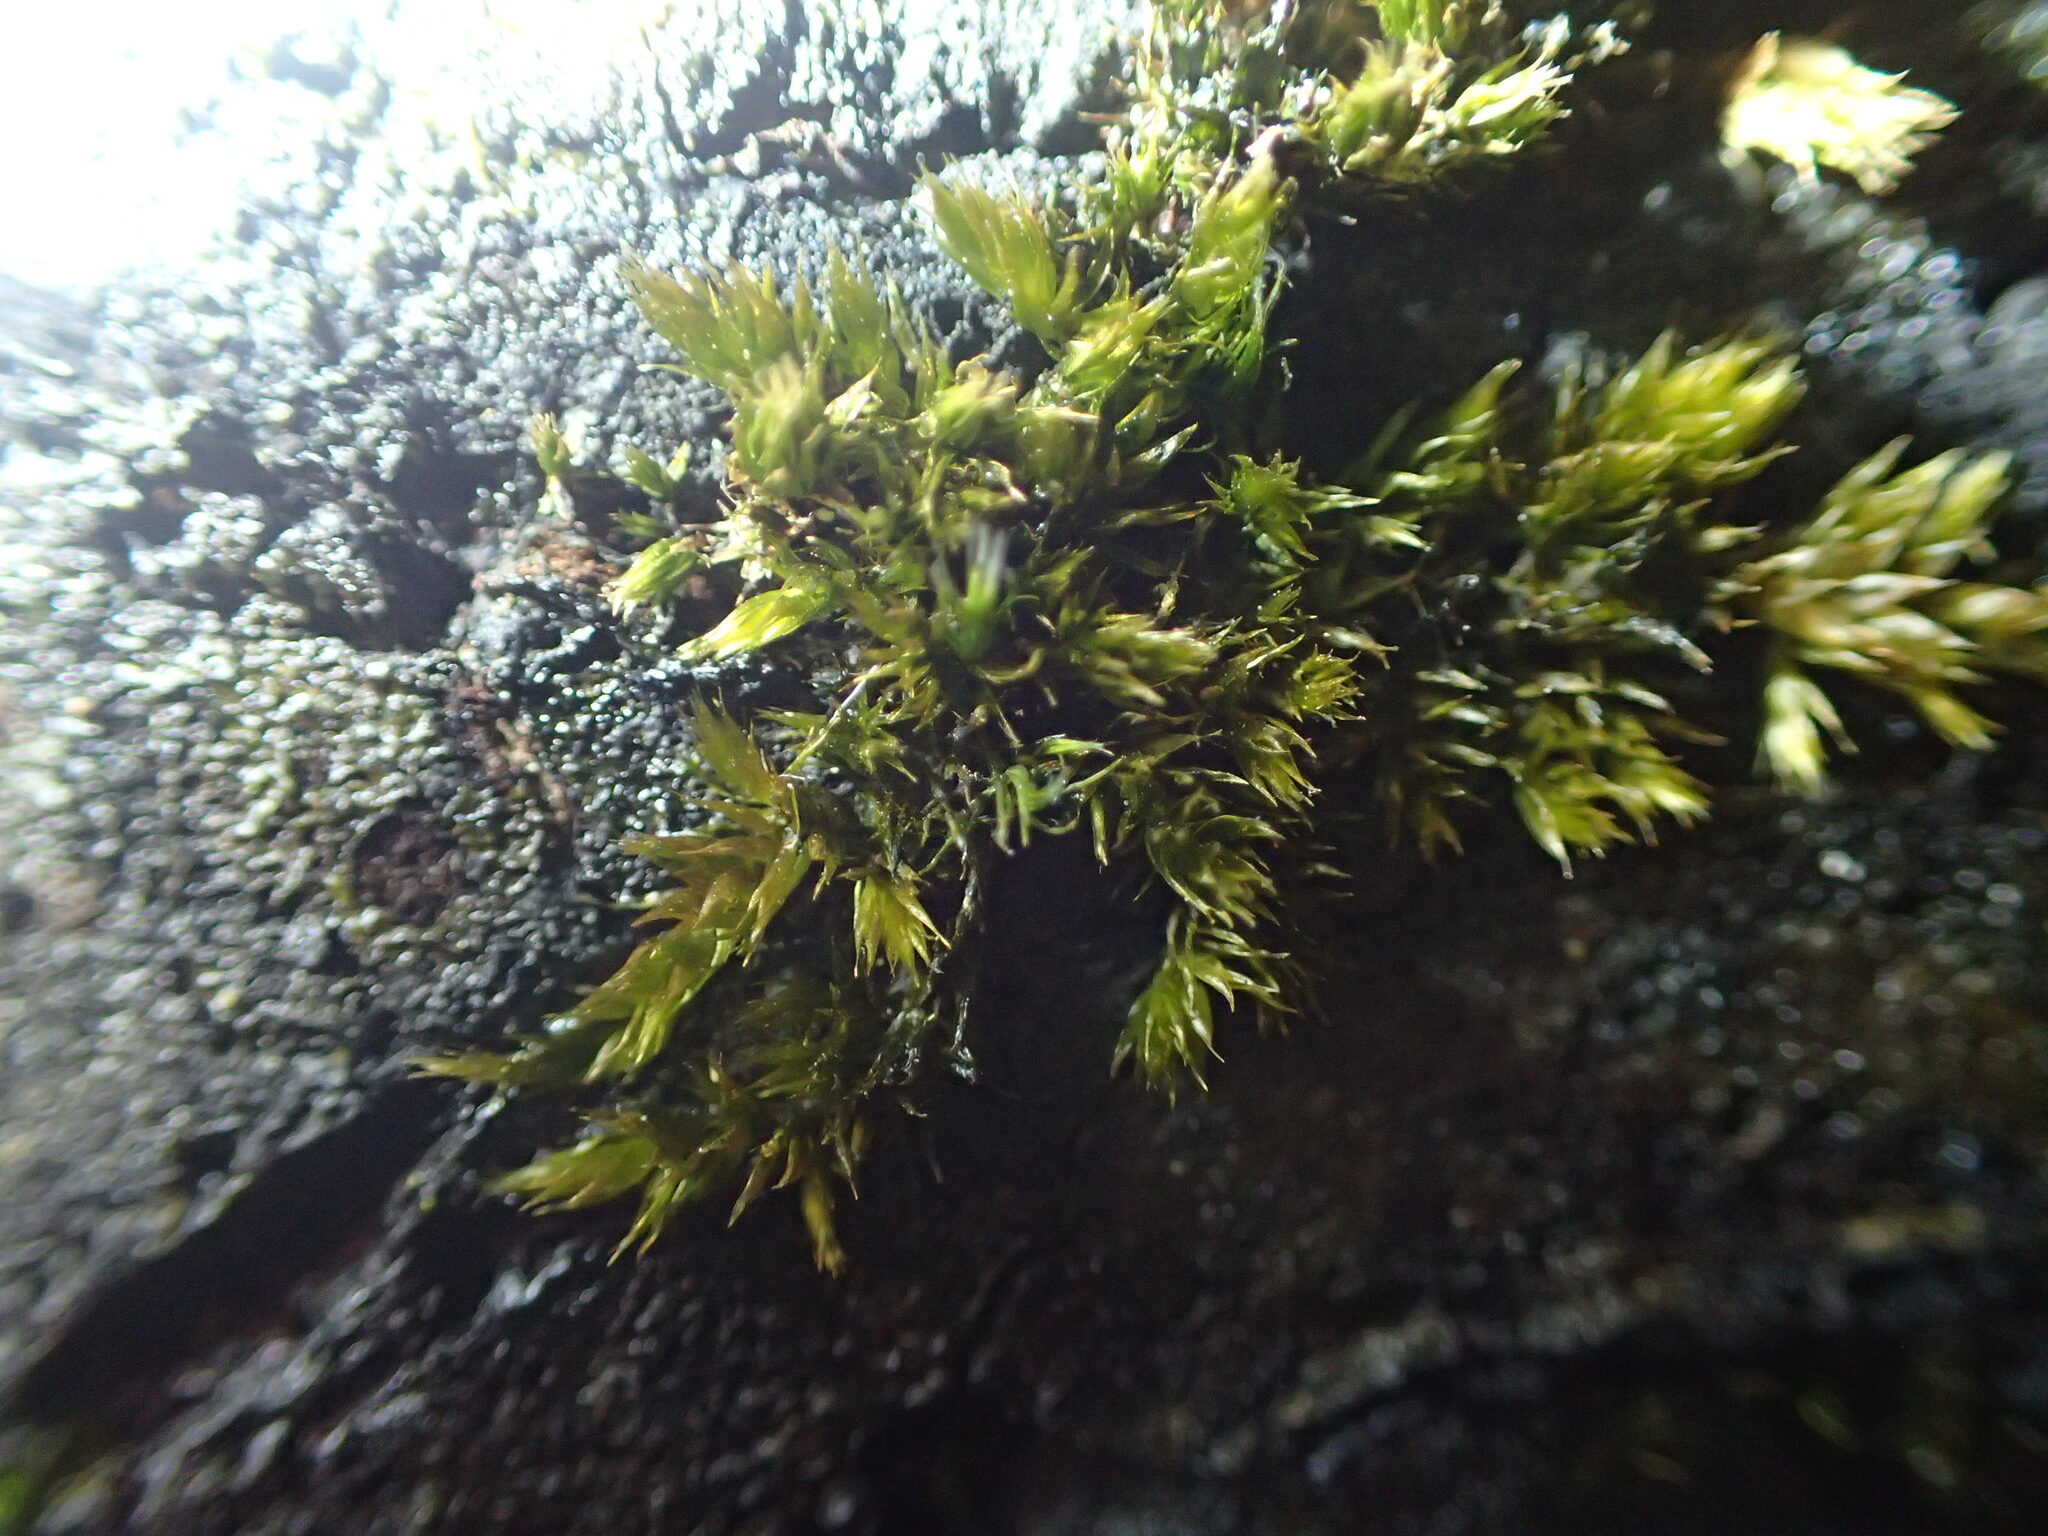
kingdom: Plantae
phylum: Bryophyta
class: Bryopsida
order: Hypnales
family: Sematophyllaceae
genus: Sematophyllum
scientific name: Sematophyllum homomallum
